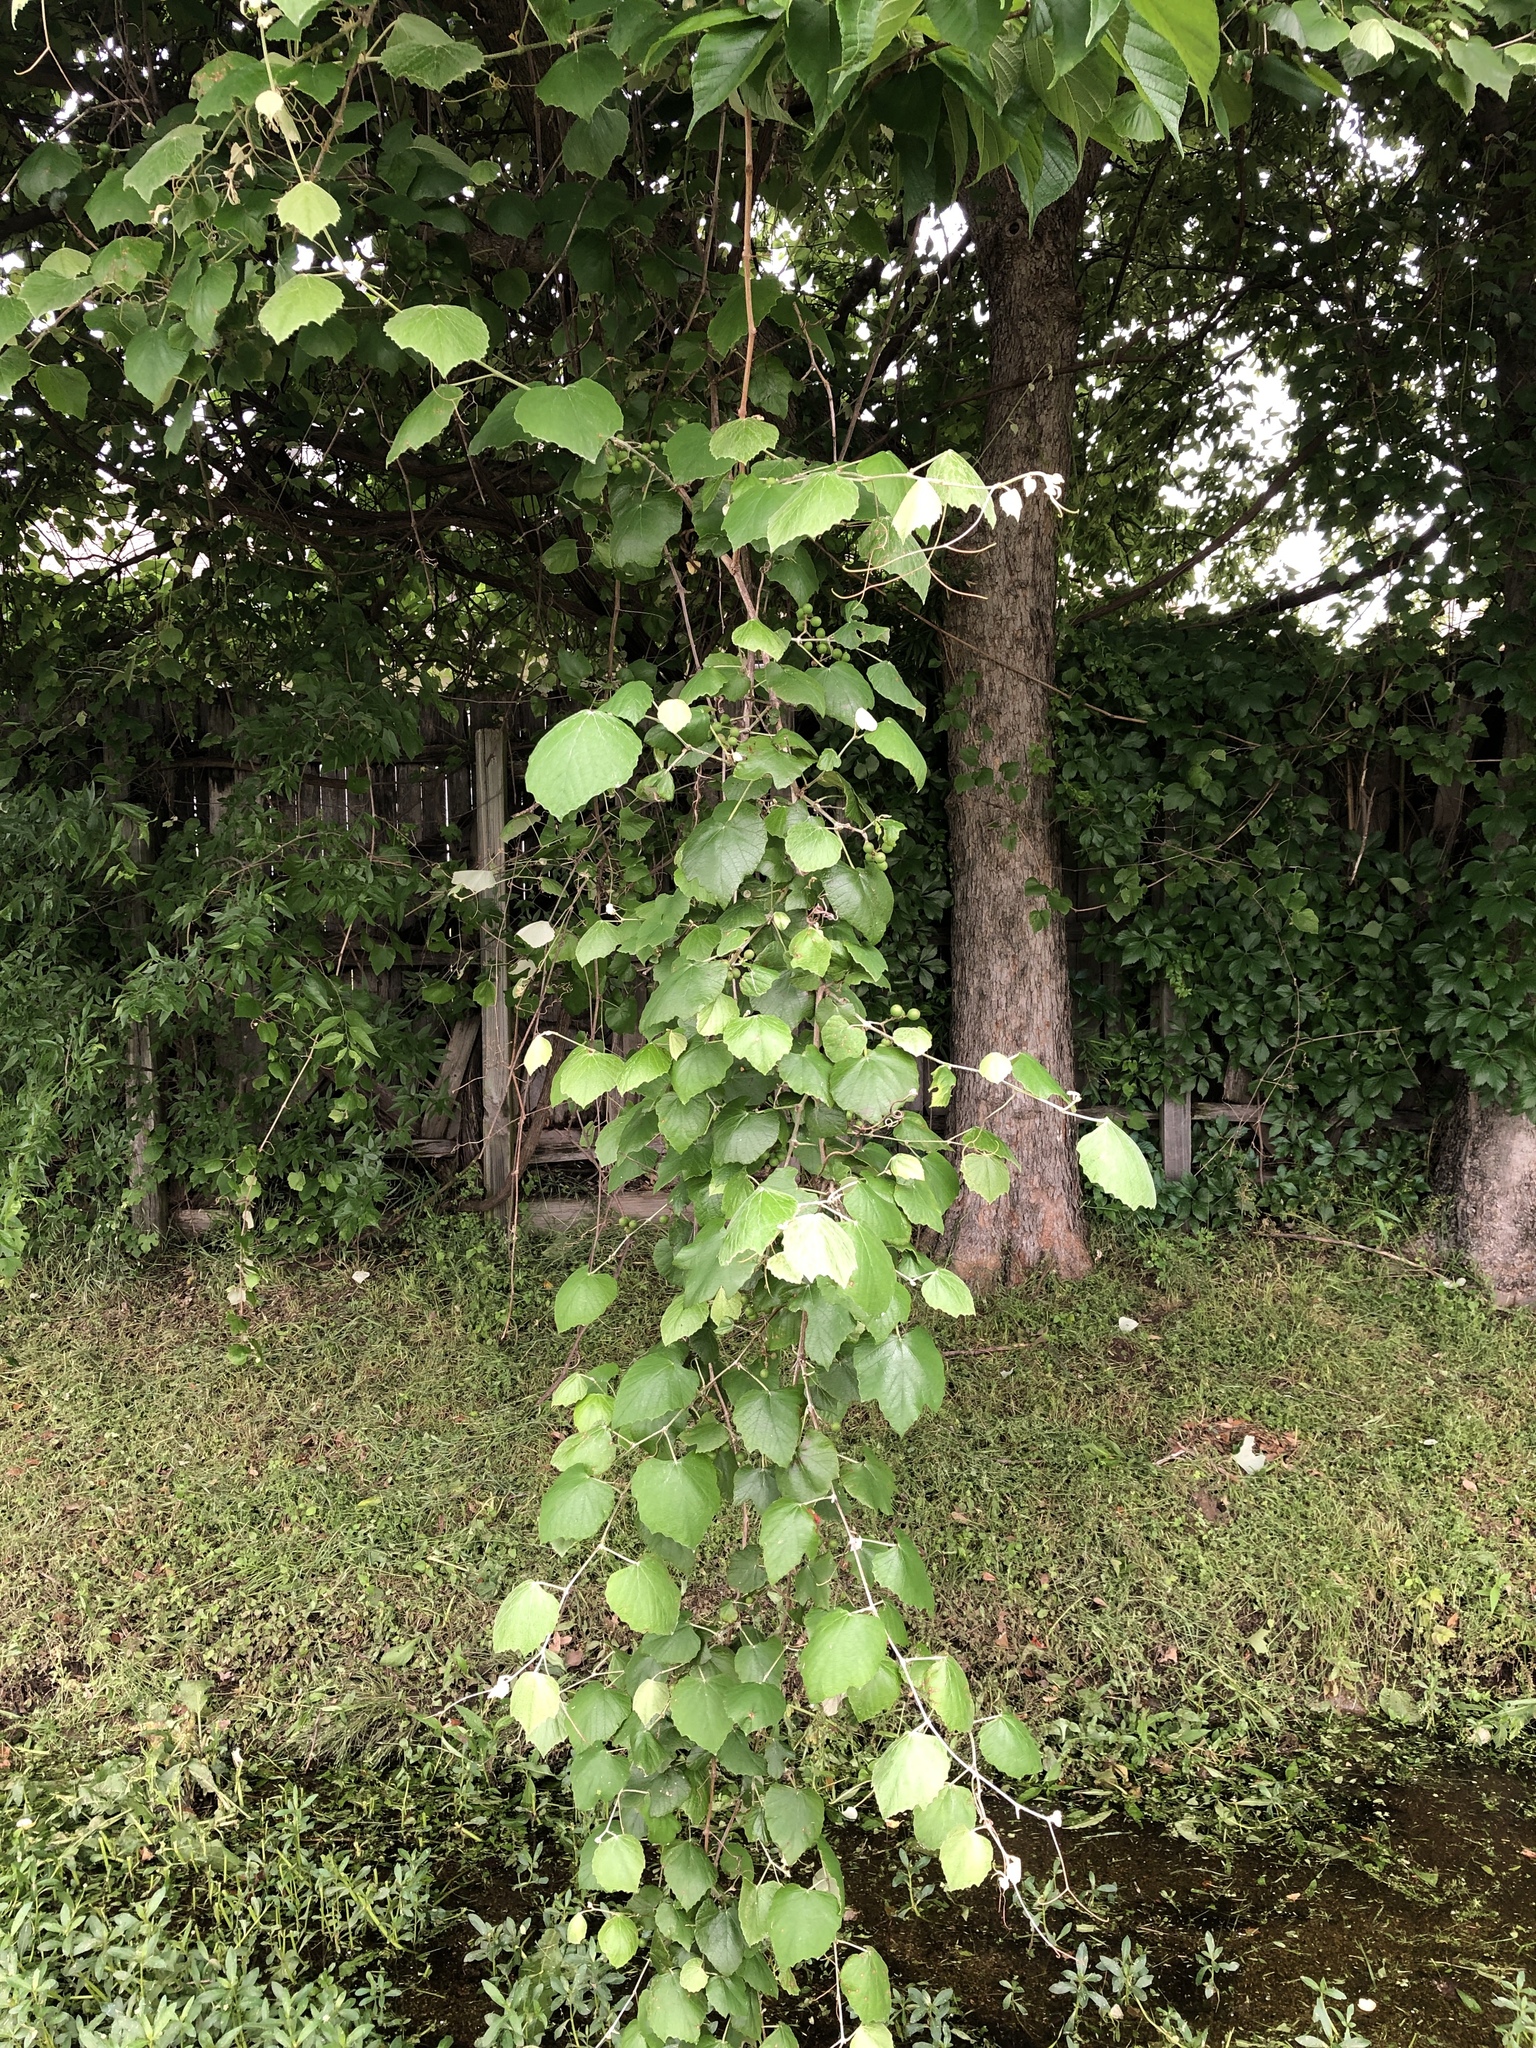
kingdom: Plantae
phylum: Tracheophyta
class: Magnoliopsida
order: Vitales
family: Vitaceae
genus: Vitis
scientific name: Vitis mustangensis
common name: Mustang grape
